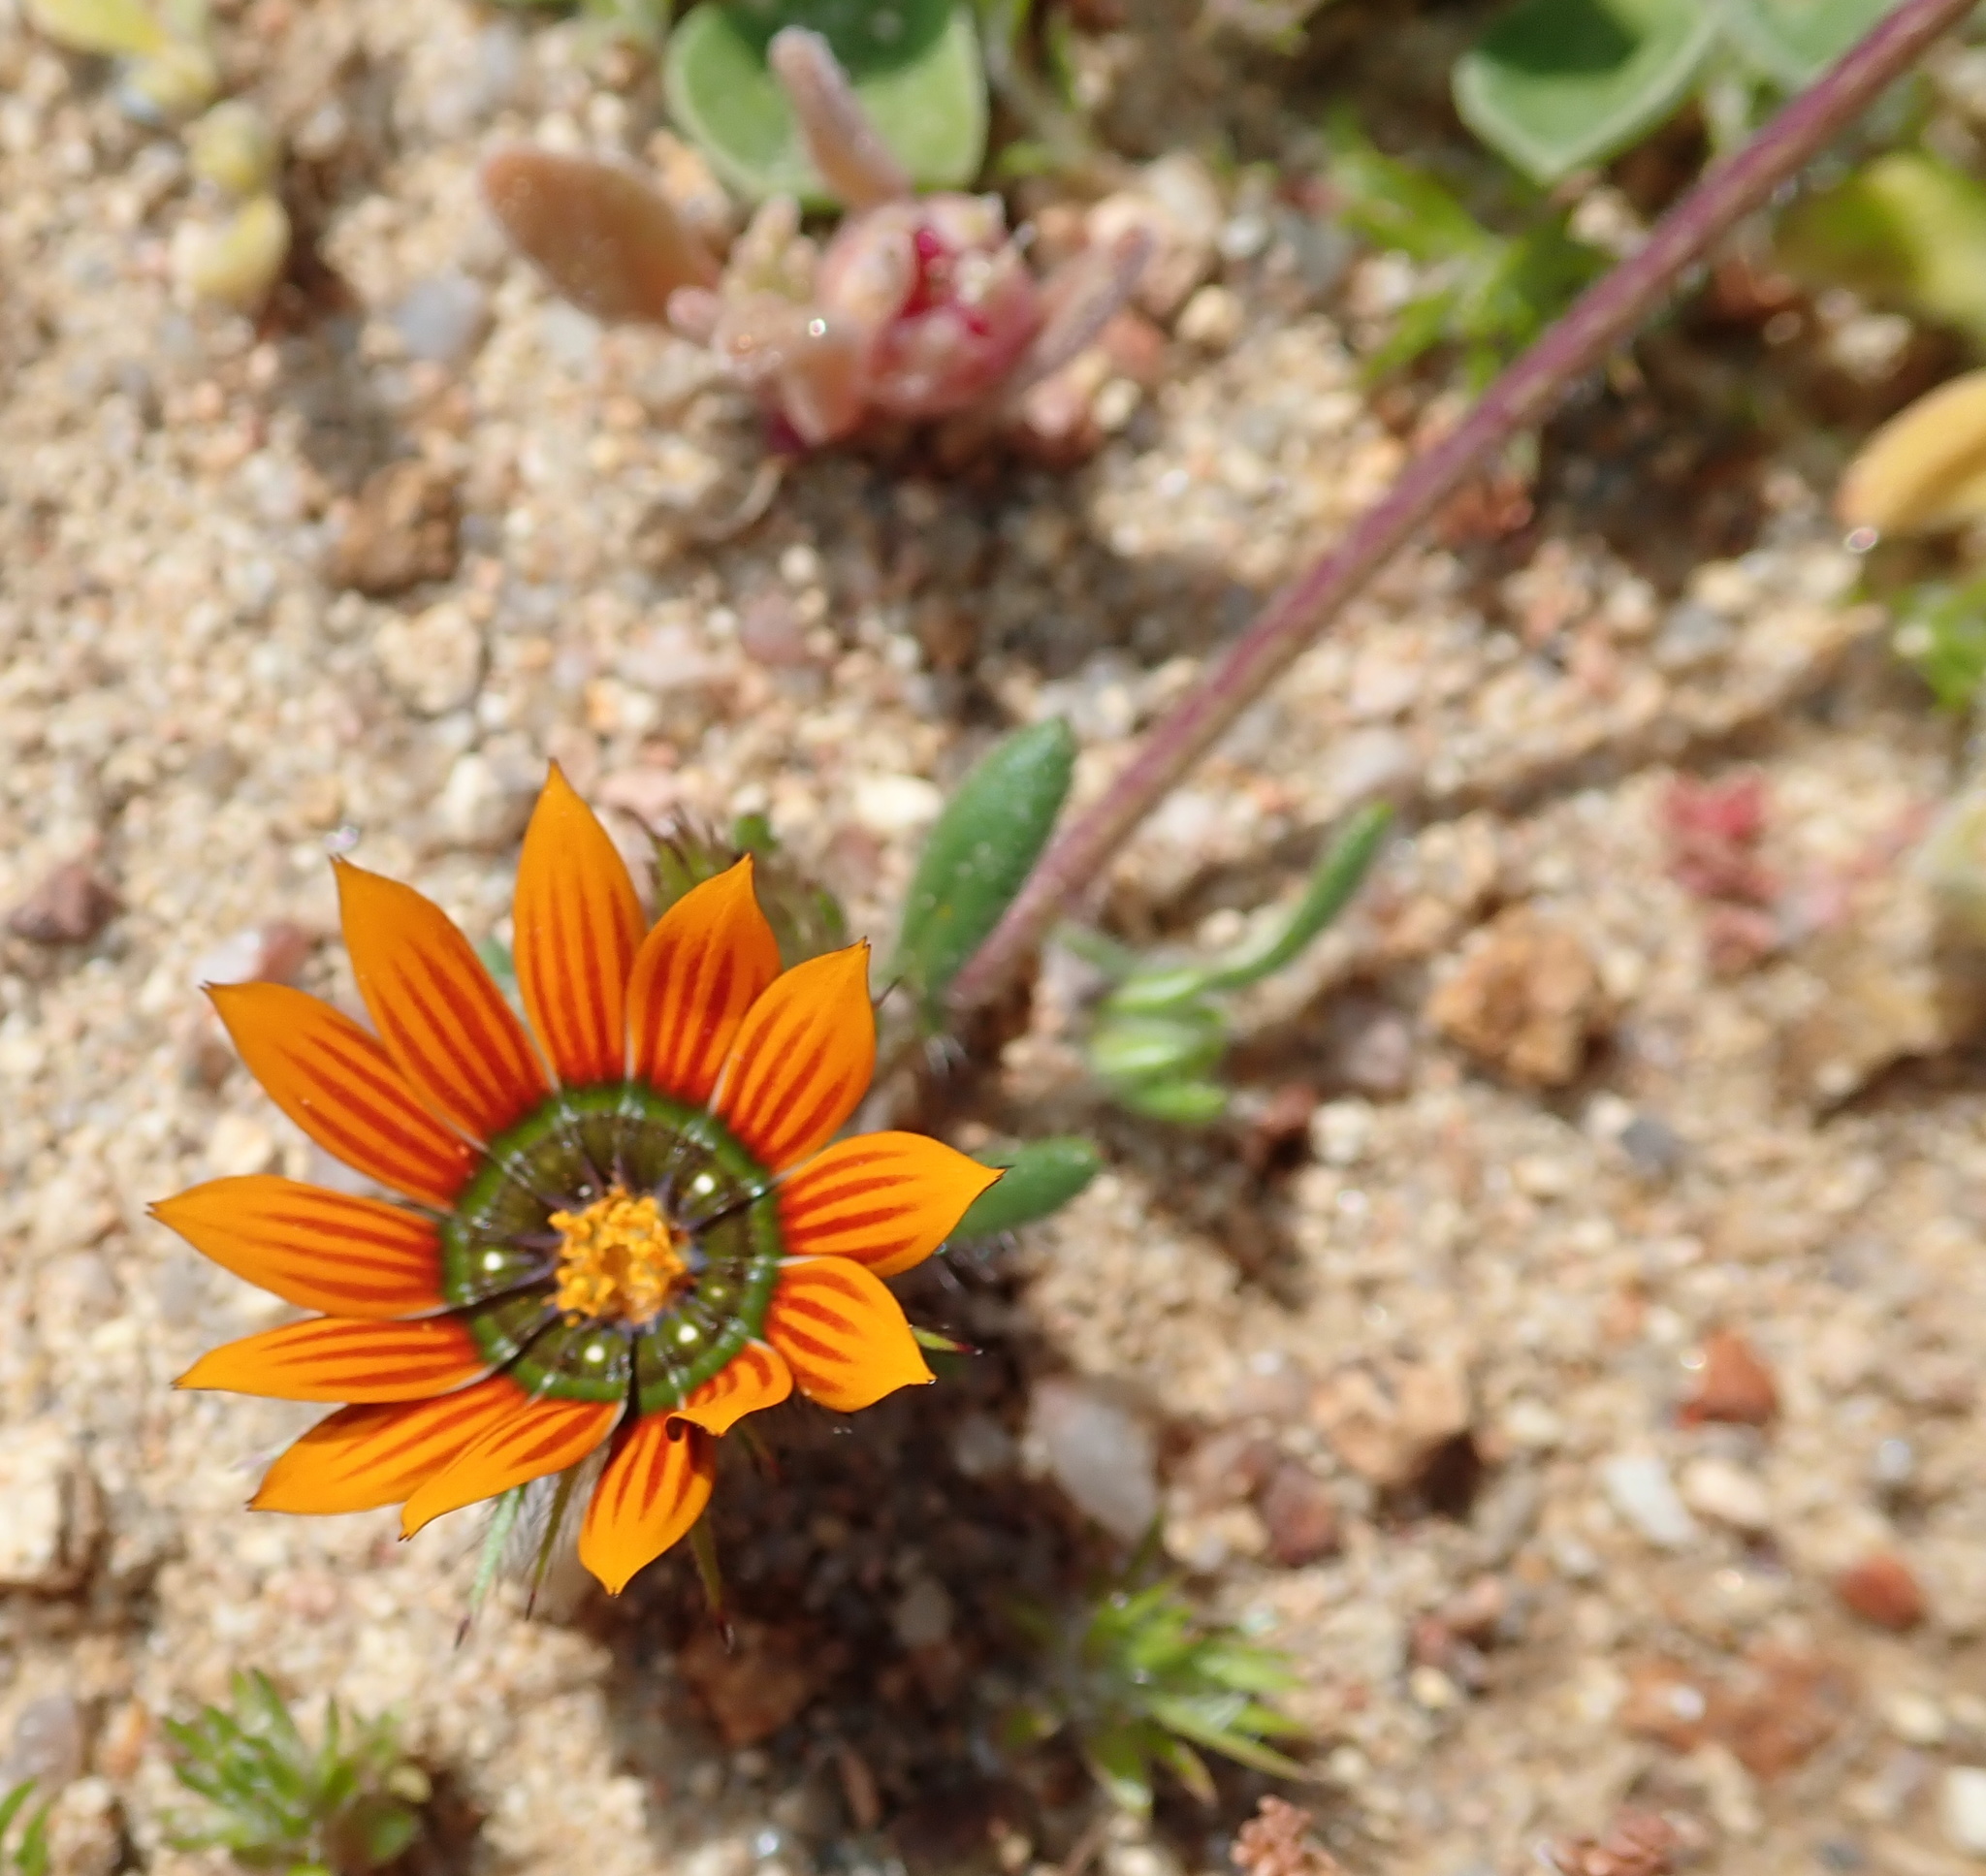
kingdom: Plantae
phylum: Tracheophyta
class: Magnoliopsida
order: Asterales
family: Asteraceae
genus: Gorteria
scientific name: Gorteria diffusa
